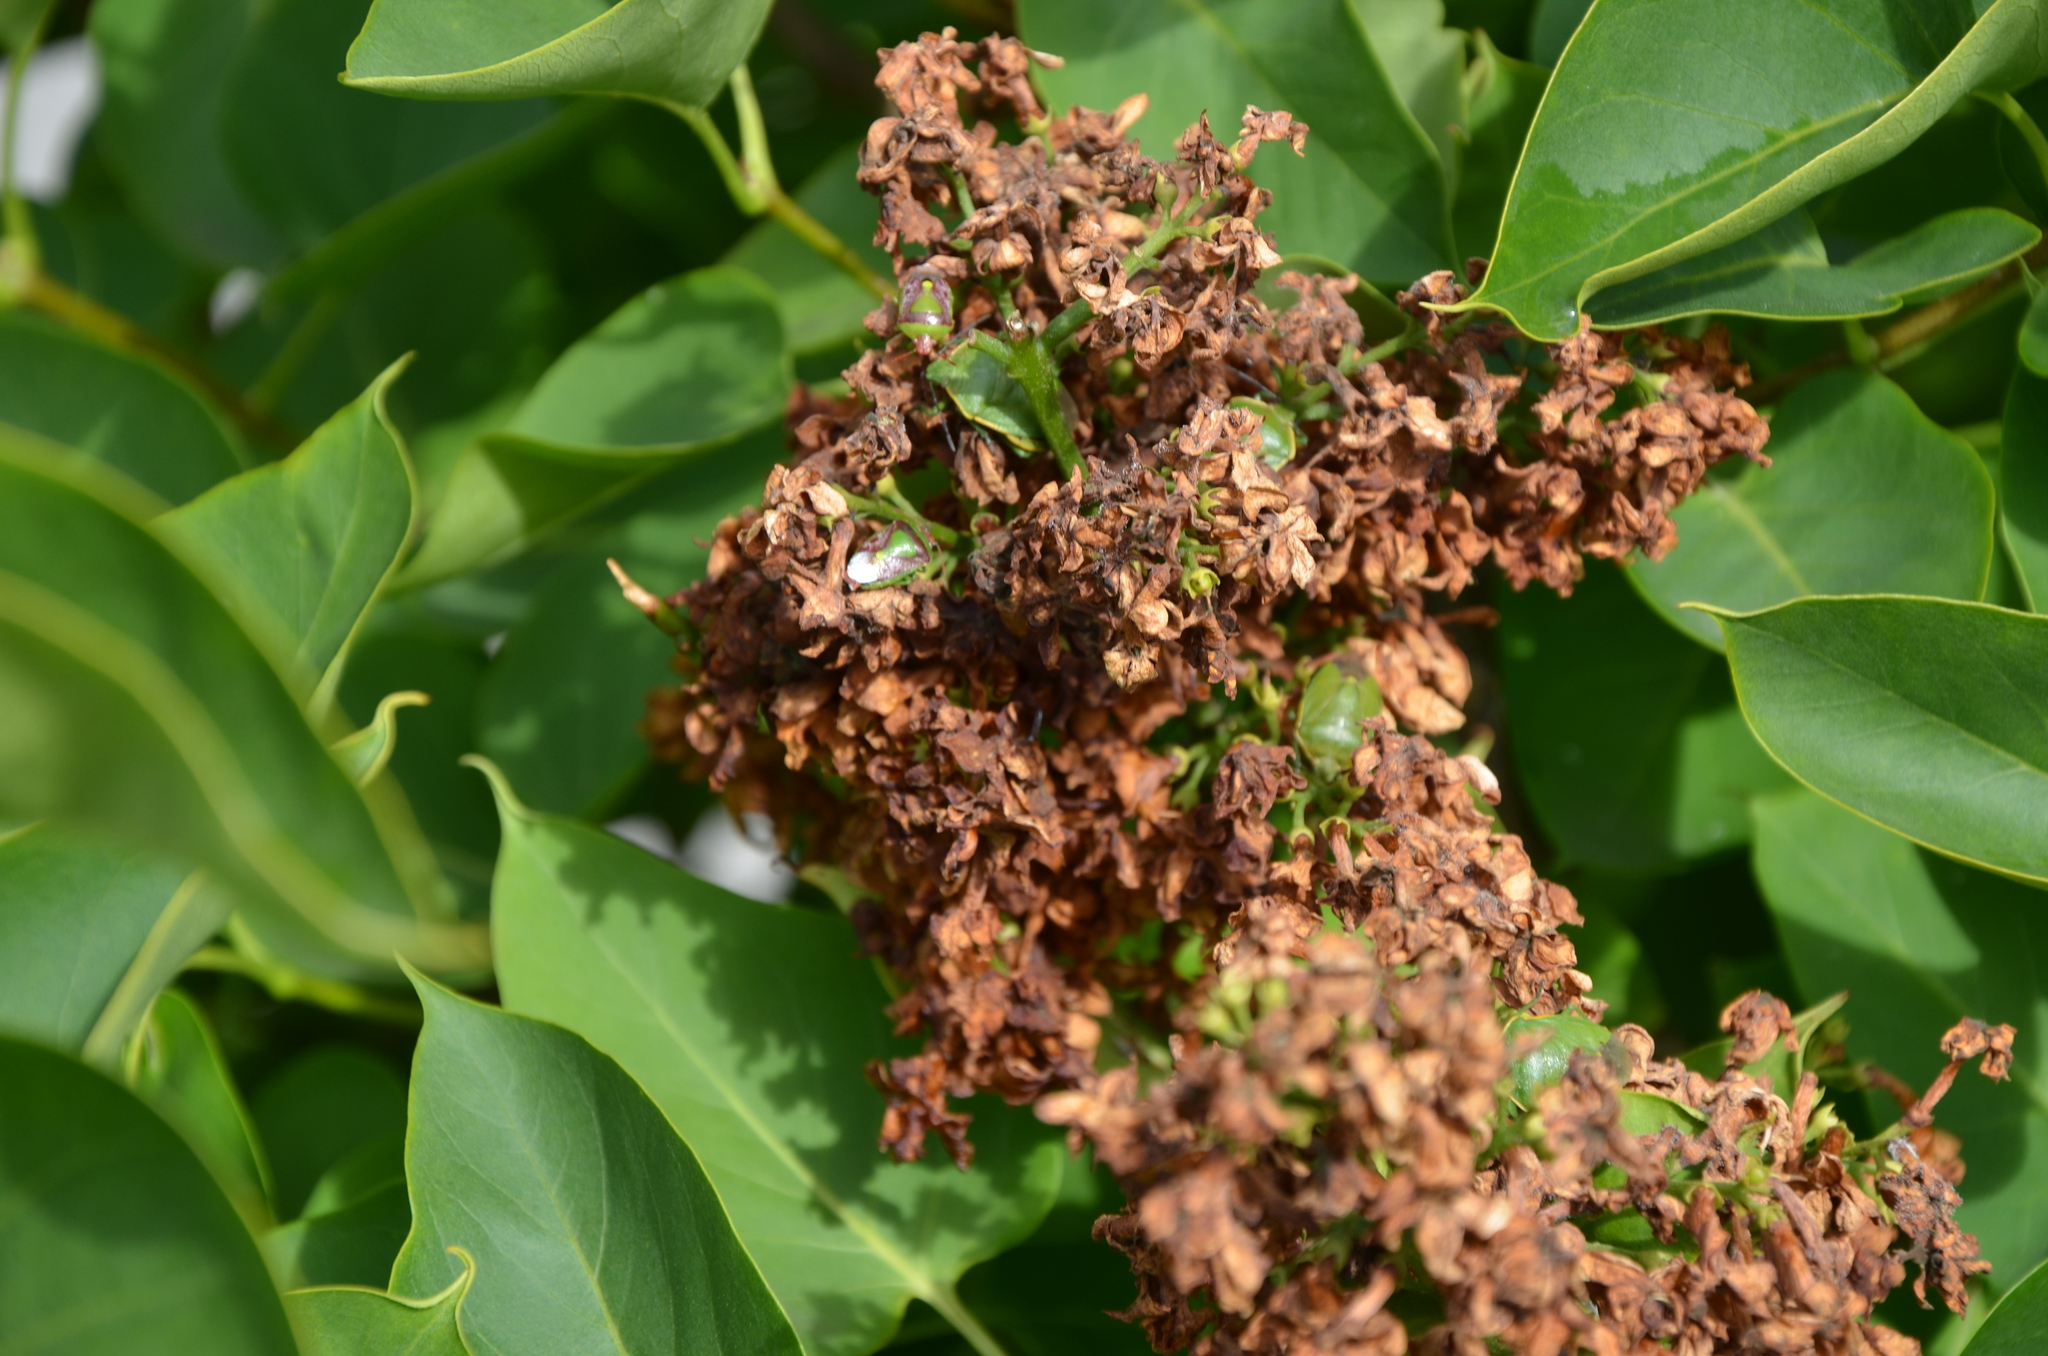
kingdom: Animalia
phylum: Arthropoda
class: Insecta
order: Hemiptera
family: Pentatomidae
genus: Banasa
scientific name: Banasa dimidiata
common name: Green burgundy stink bug
